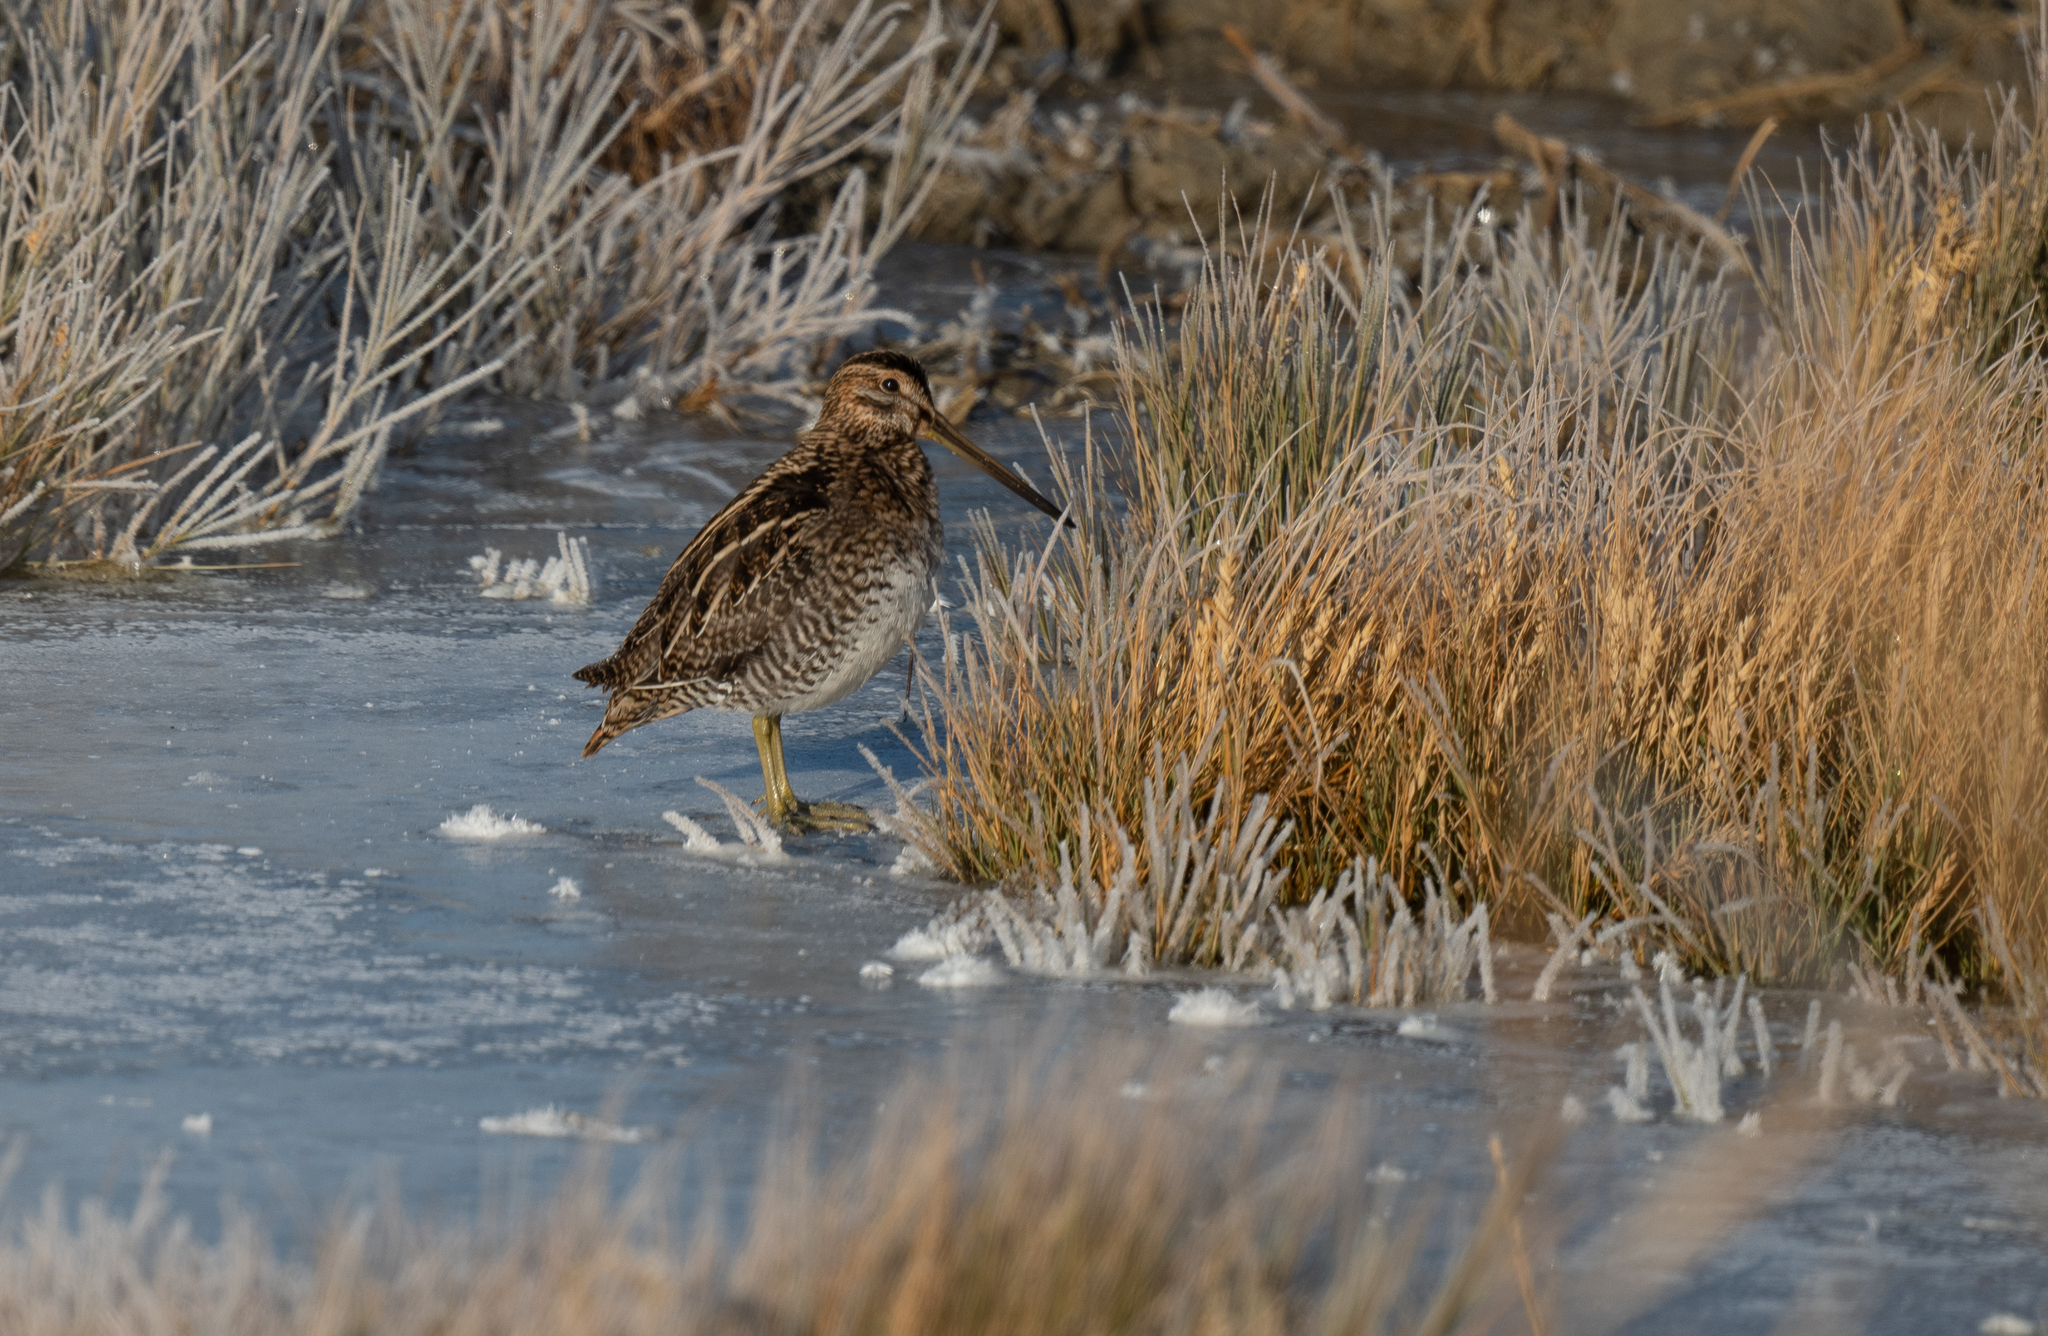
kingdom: Animalia
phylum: Chordata
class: Aves
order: Charadriiformes
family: Scolopacidae
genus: Gallinago
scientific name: Gallinago delicata
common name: Wilson's snipe
